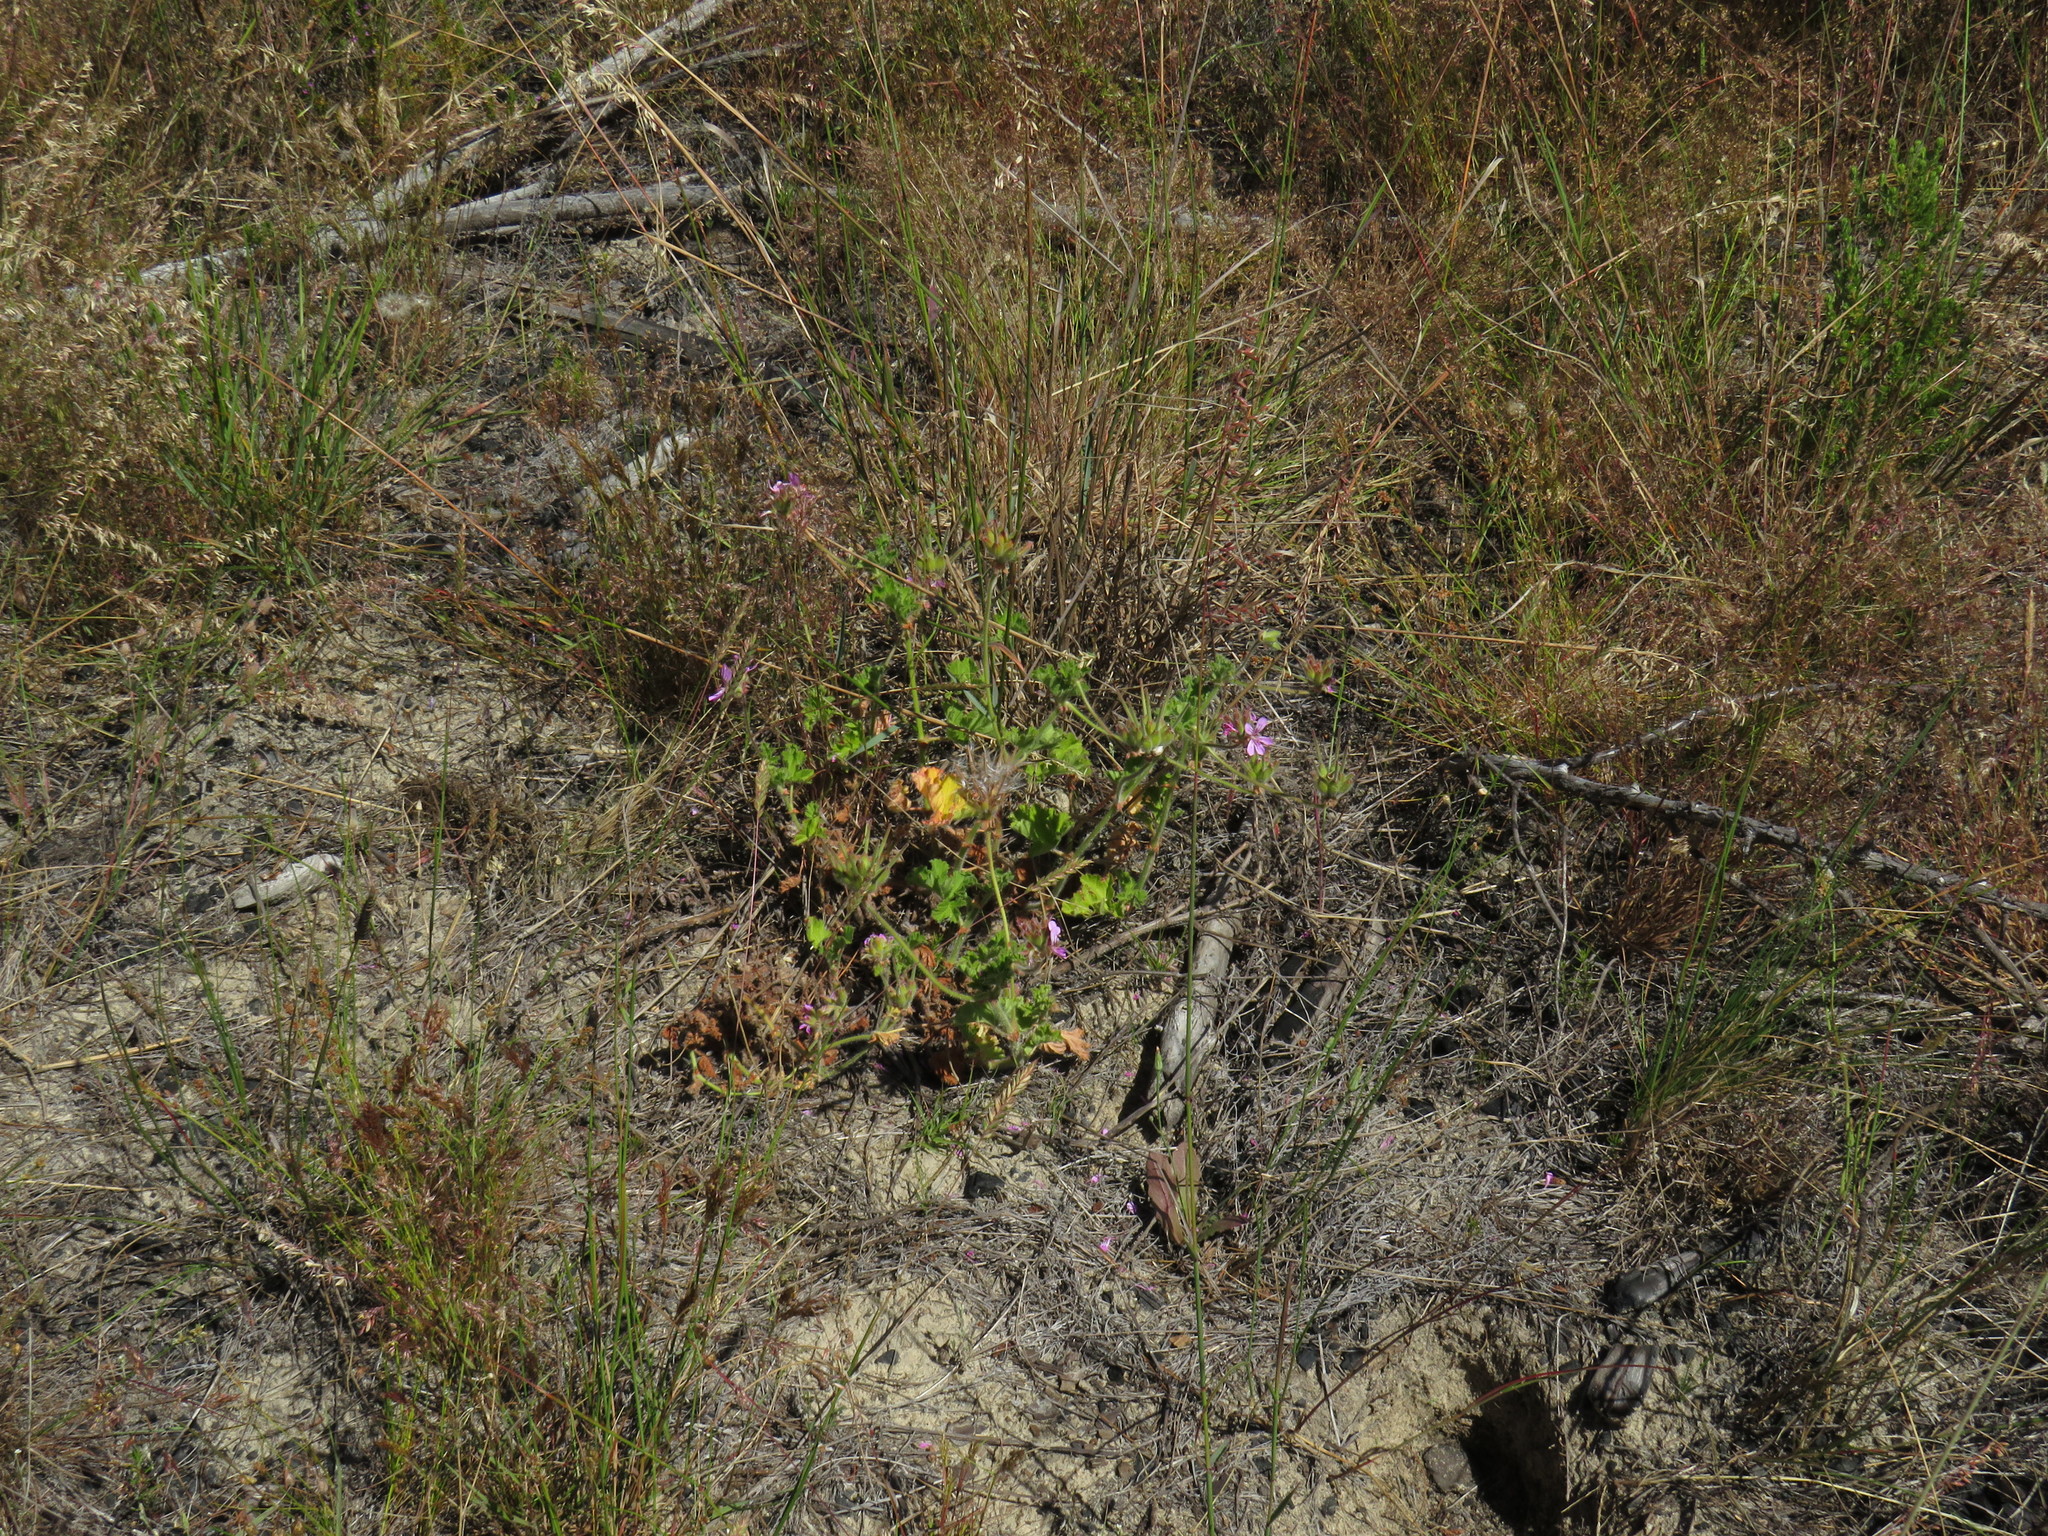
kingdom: Plantae
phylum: Tracheophyta
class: Magnoliopsida
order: Geraniales
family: Geraniaceae
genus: Pelargonium
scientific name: Pelargonium capitatum
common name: Rose scented geranium
